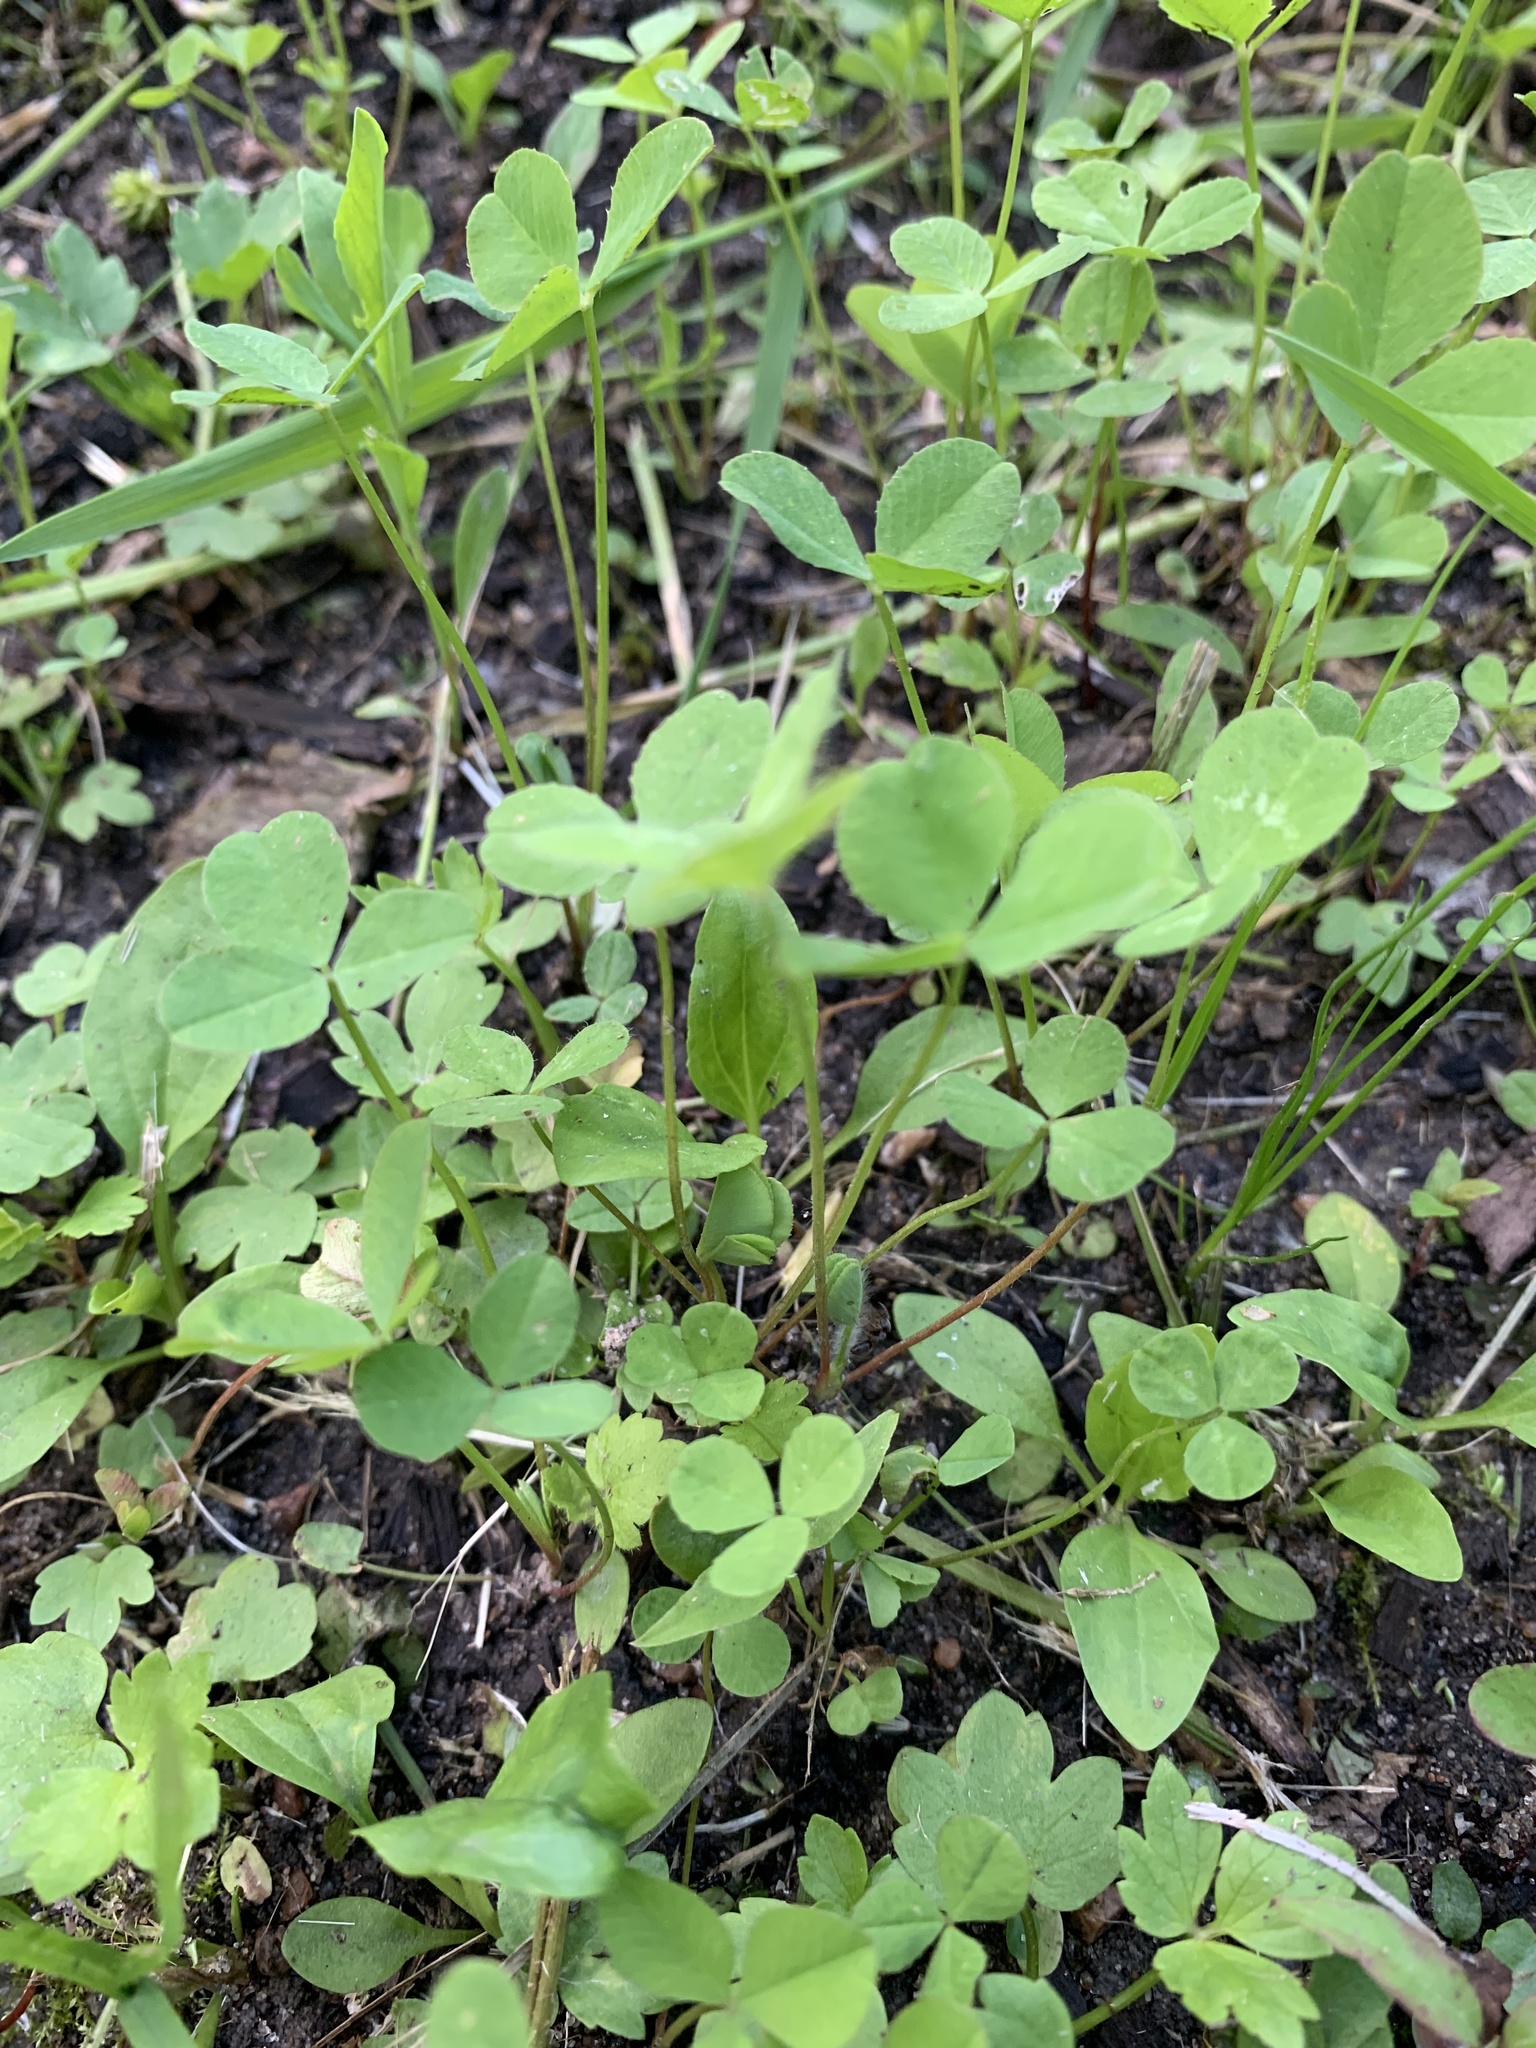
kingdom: Plantae
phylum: Tracheophyta
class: Magnoliopsida
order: Fabales
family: Fabaceae
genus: Trifolium
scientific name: Trifolium repens
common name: White clover
